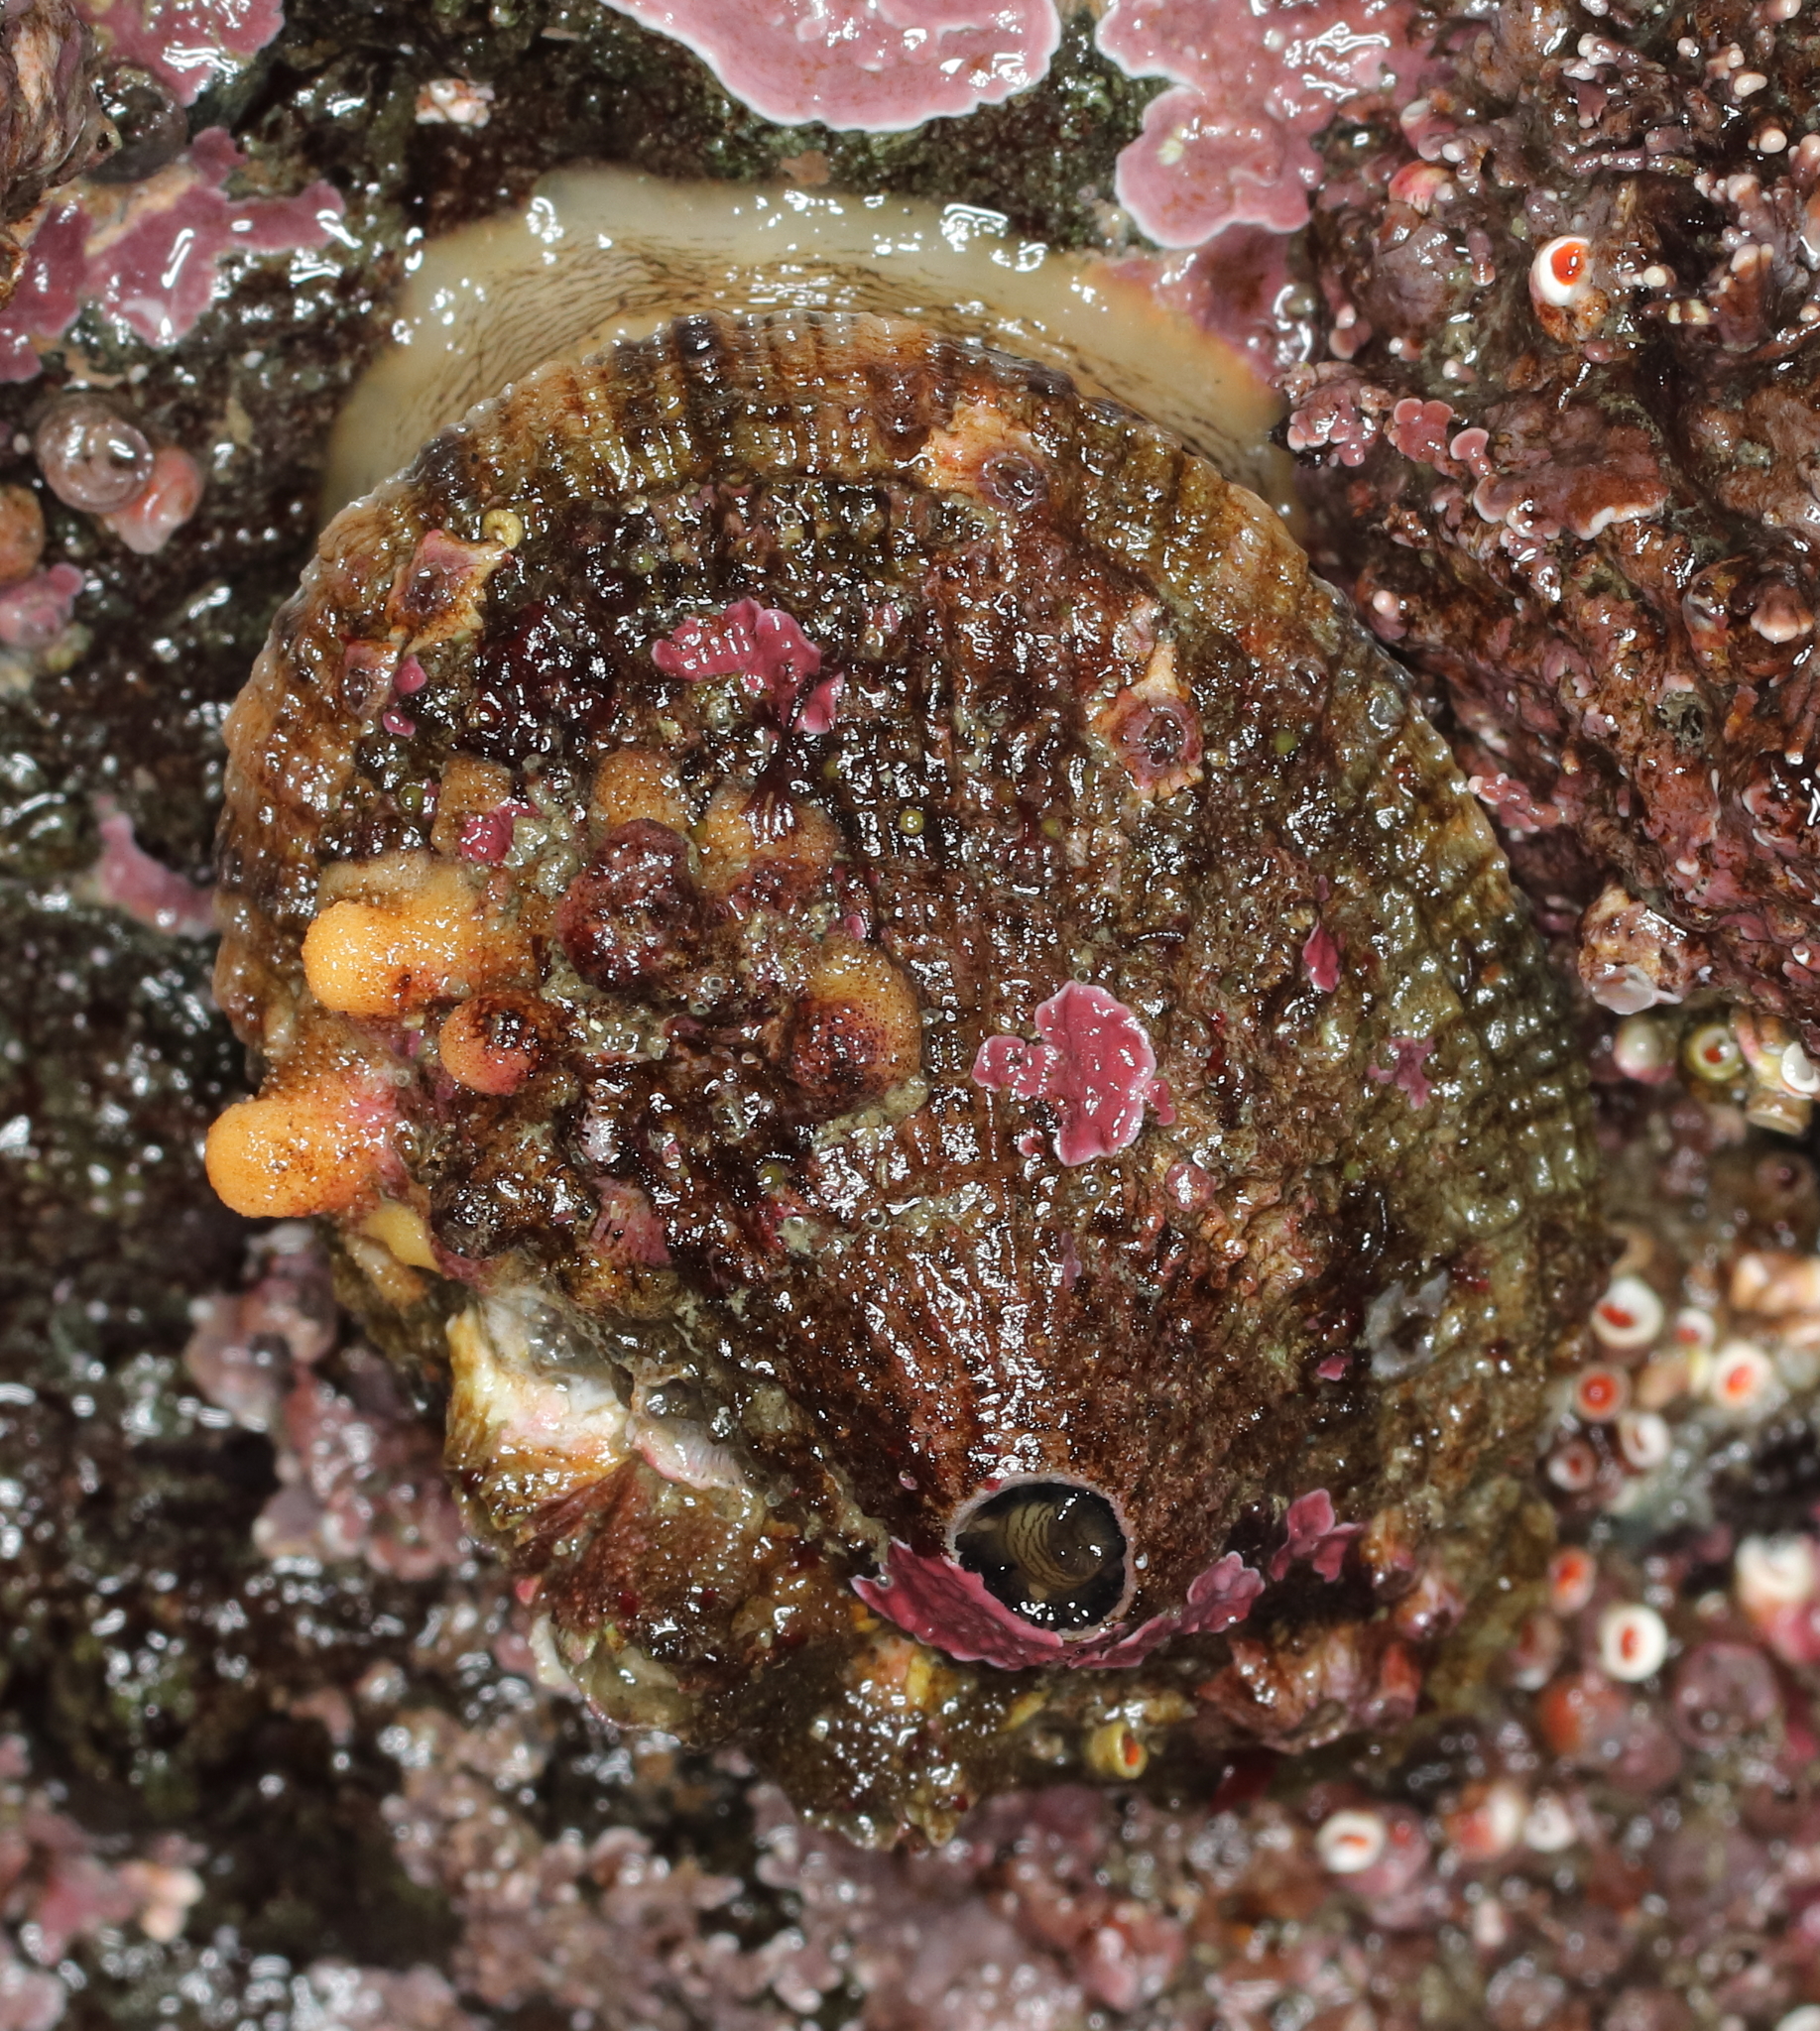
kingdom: Animalia
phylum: Mollusca
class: Gastropoda
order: Lepetellida
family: Fissurellidae
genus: Diodora
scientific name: Diodora aspera
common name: Rough keyhole limpet
